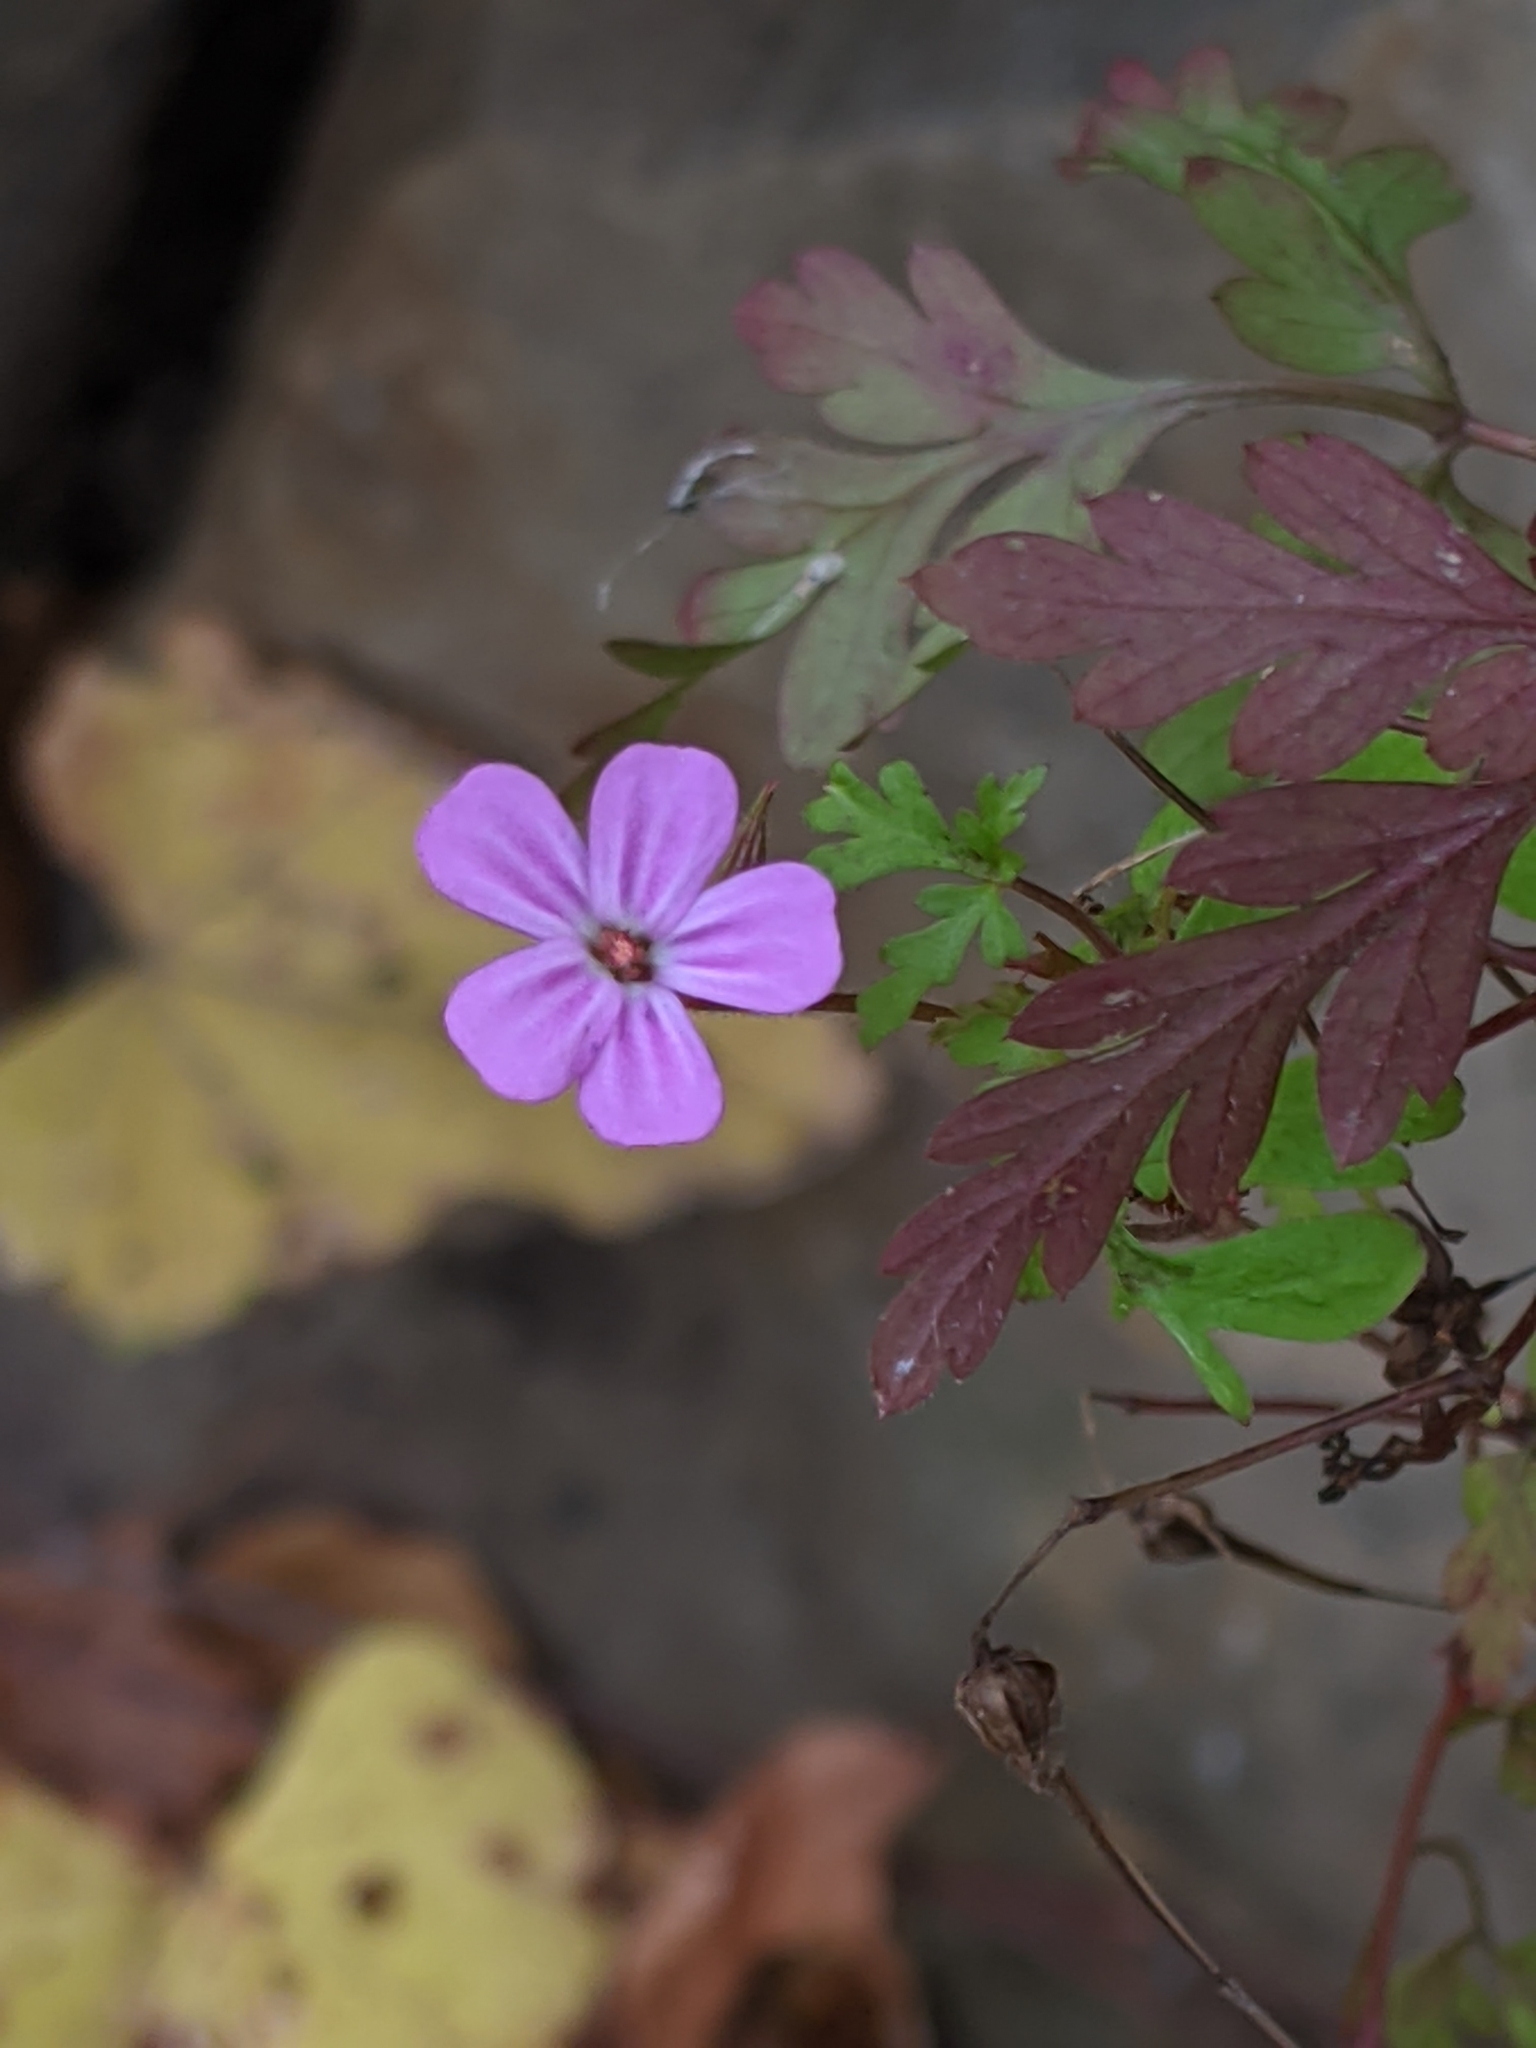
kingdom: Plantae
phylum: Tracheophyta
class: Magnoliopsida
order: Geraniales
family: Geraniaceae
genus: Geranium
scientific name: Geranium robertianum
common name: Herb-robert
